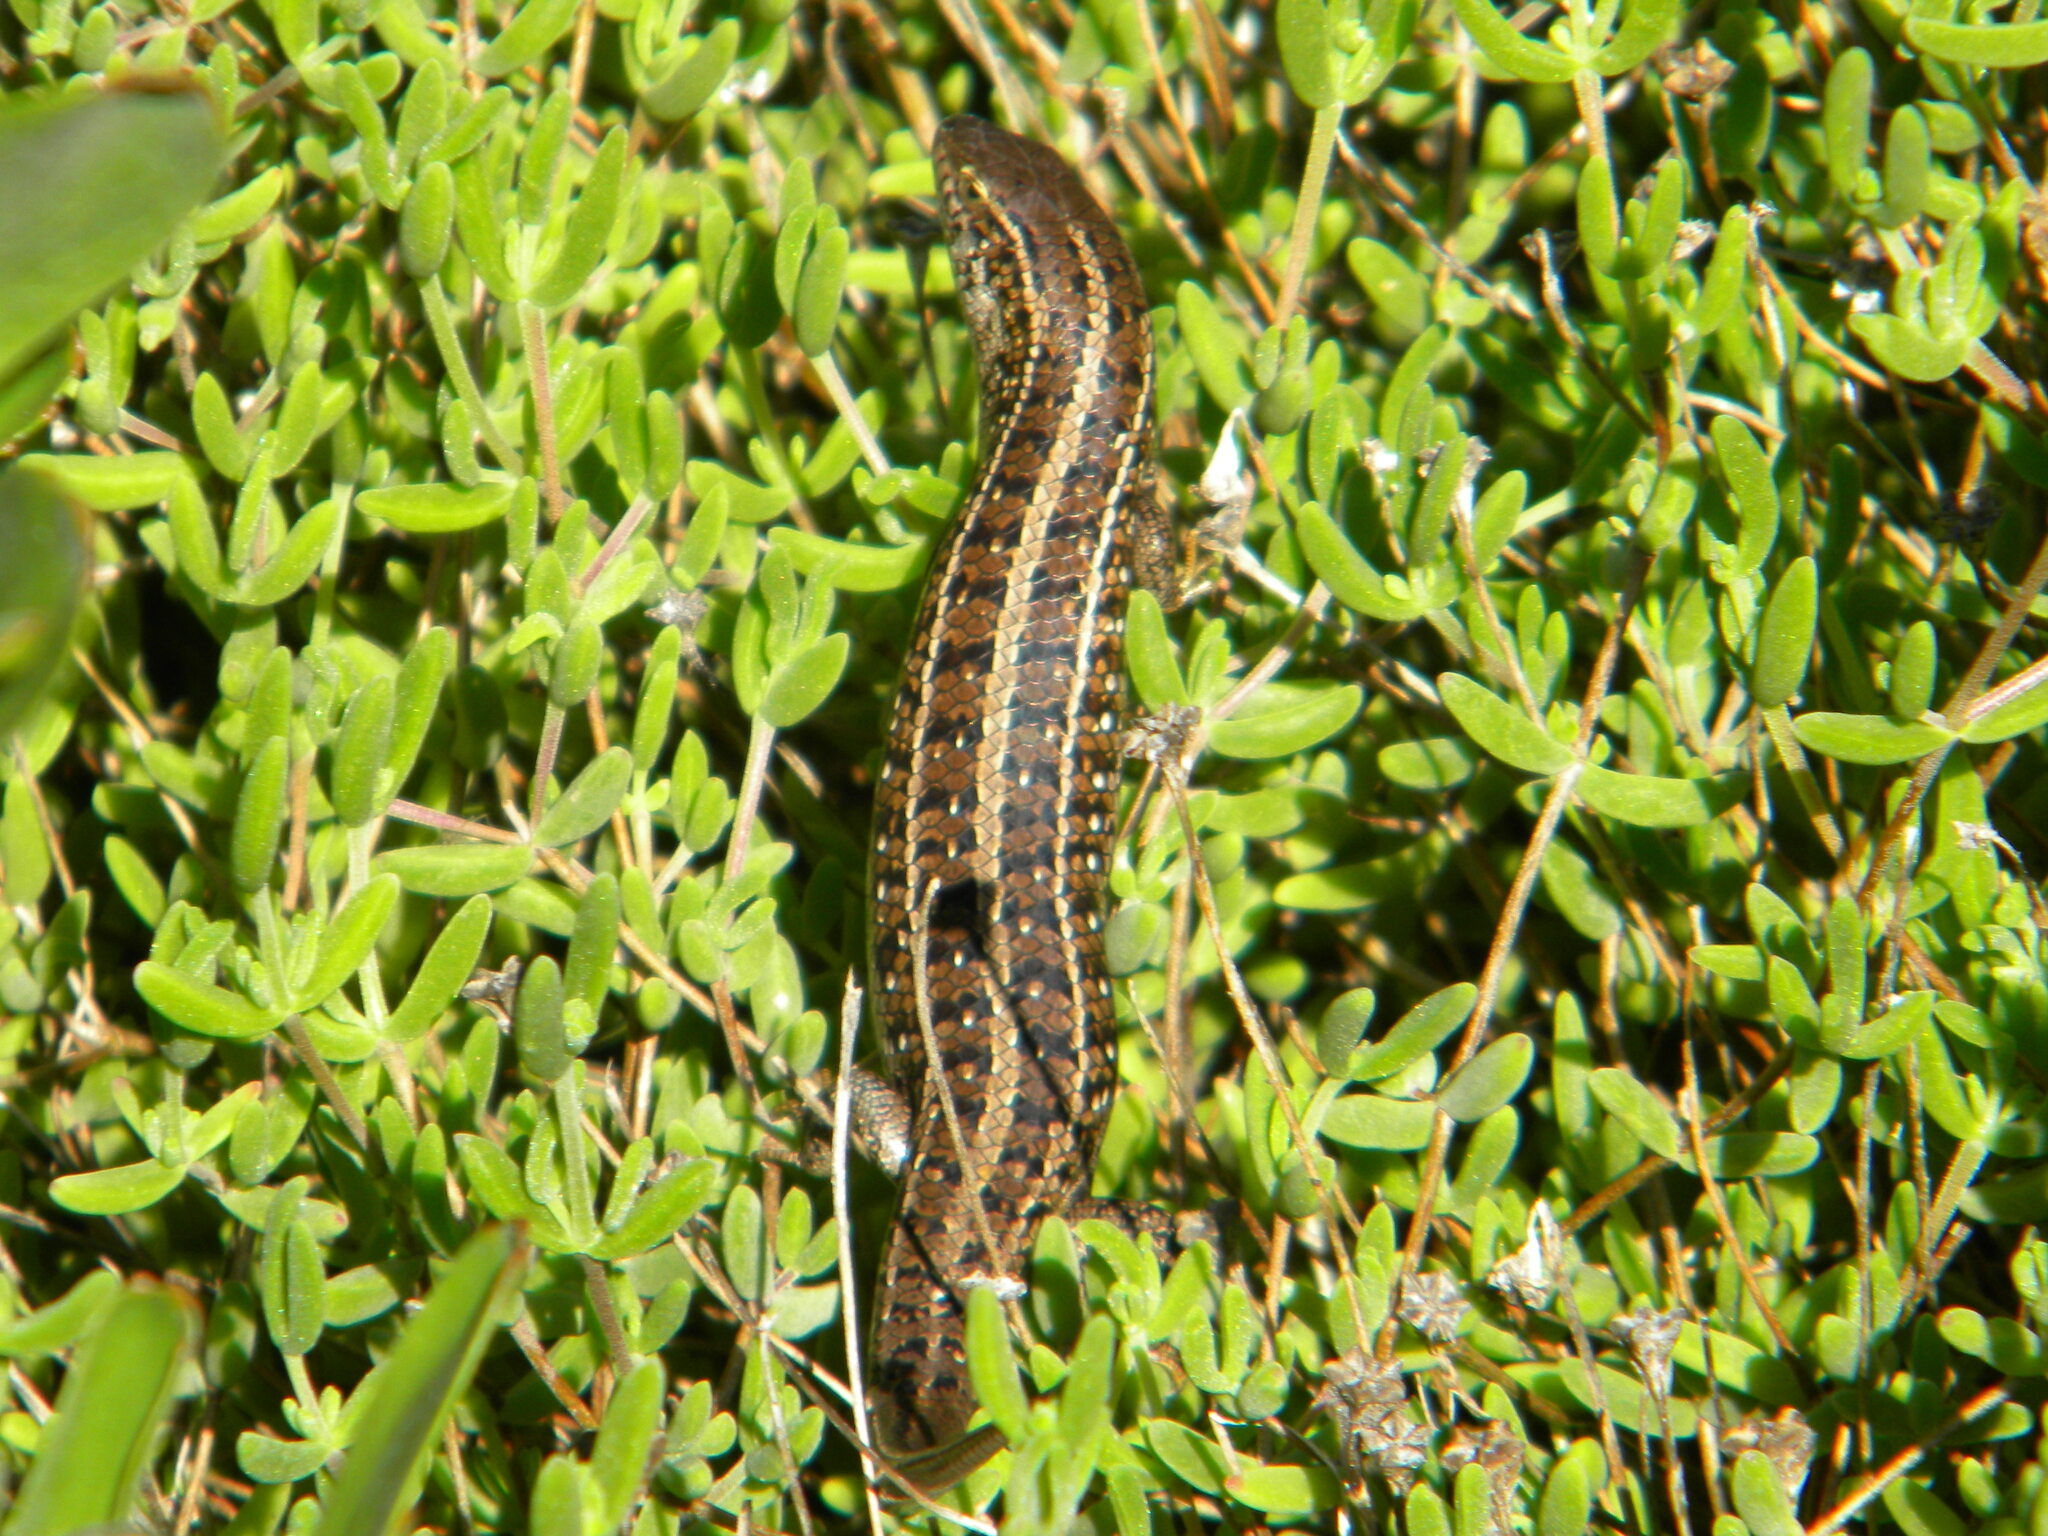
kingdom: Animalia
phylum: Chordata
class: Squamata
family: Scincidae
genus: Trachylepis
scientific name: Trachylepis capensis
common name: Cape skink
